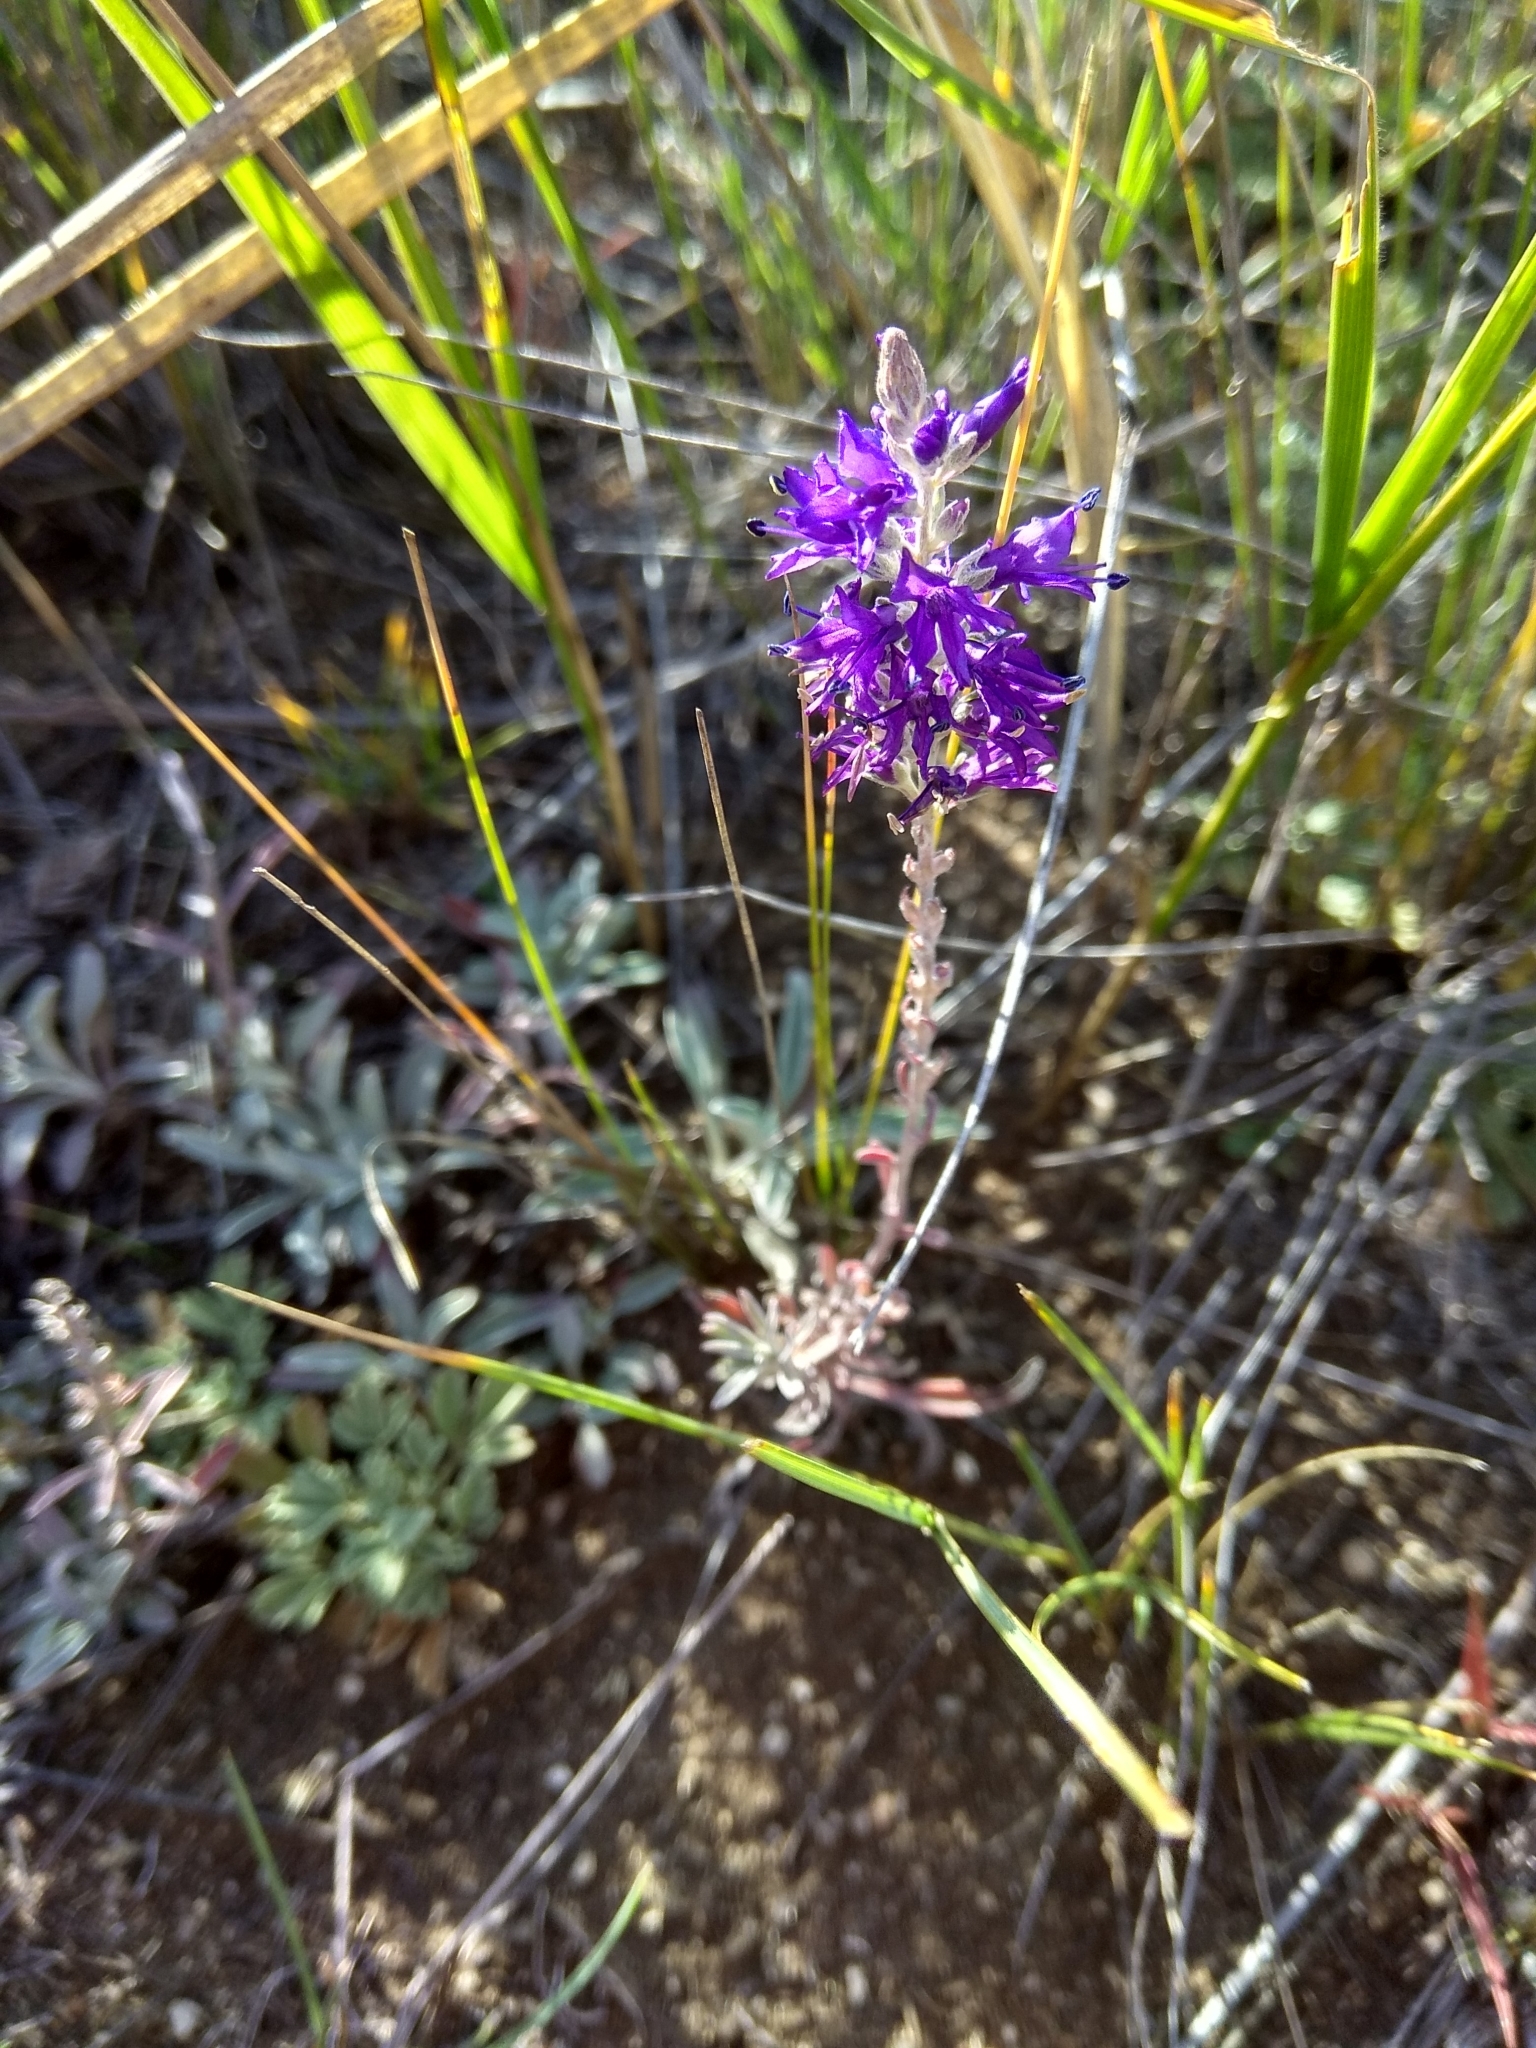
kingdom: Plantae
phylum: Tracheophyta
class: Magnoliopsida
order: Lamiales
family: Plantaginaceae
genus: Veronica
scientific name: Veronica incana
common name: Silver speedwell
